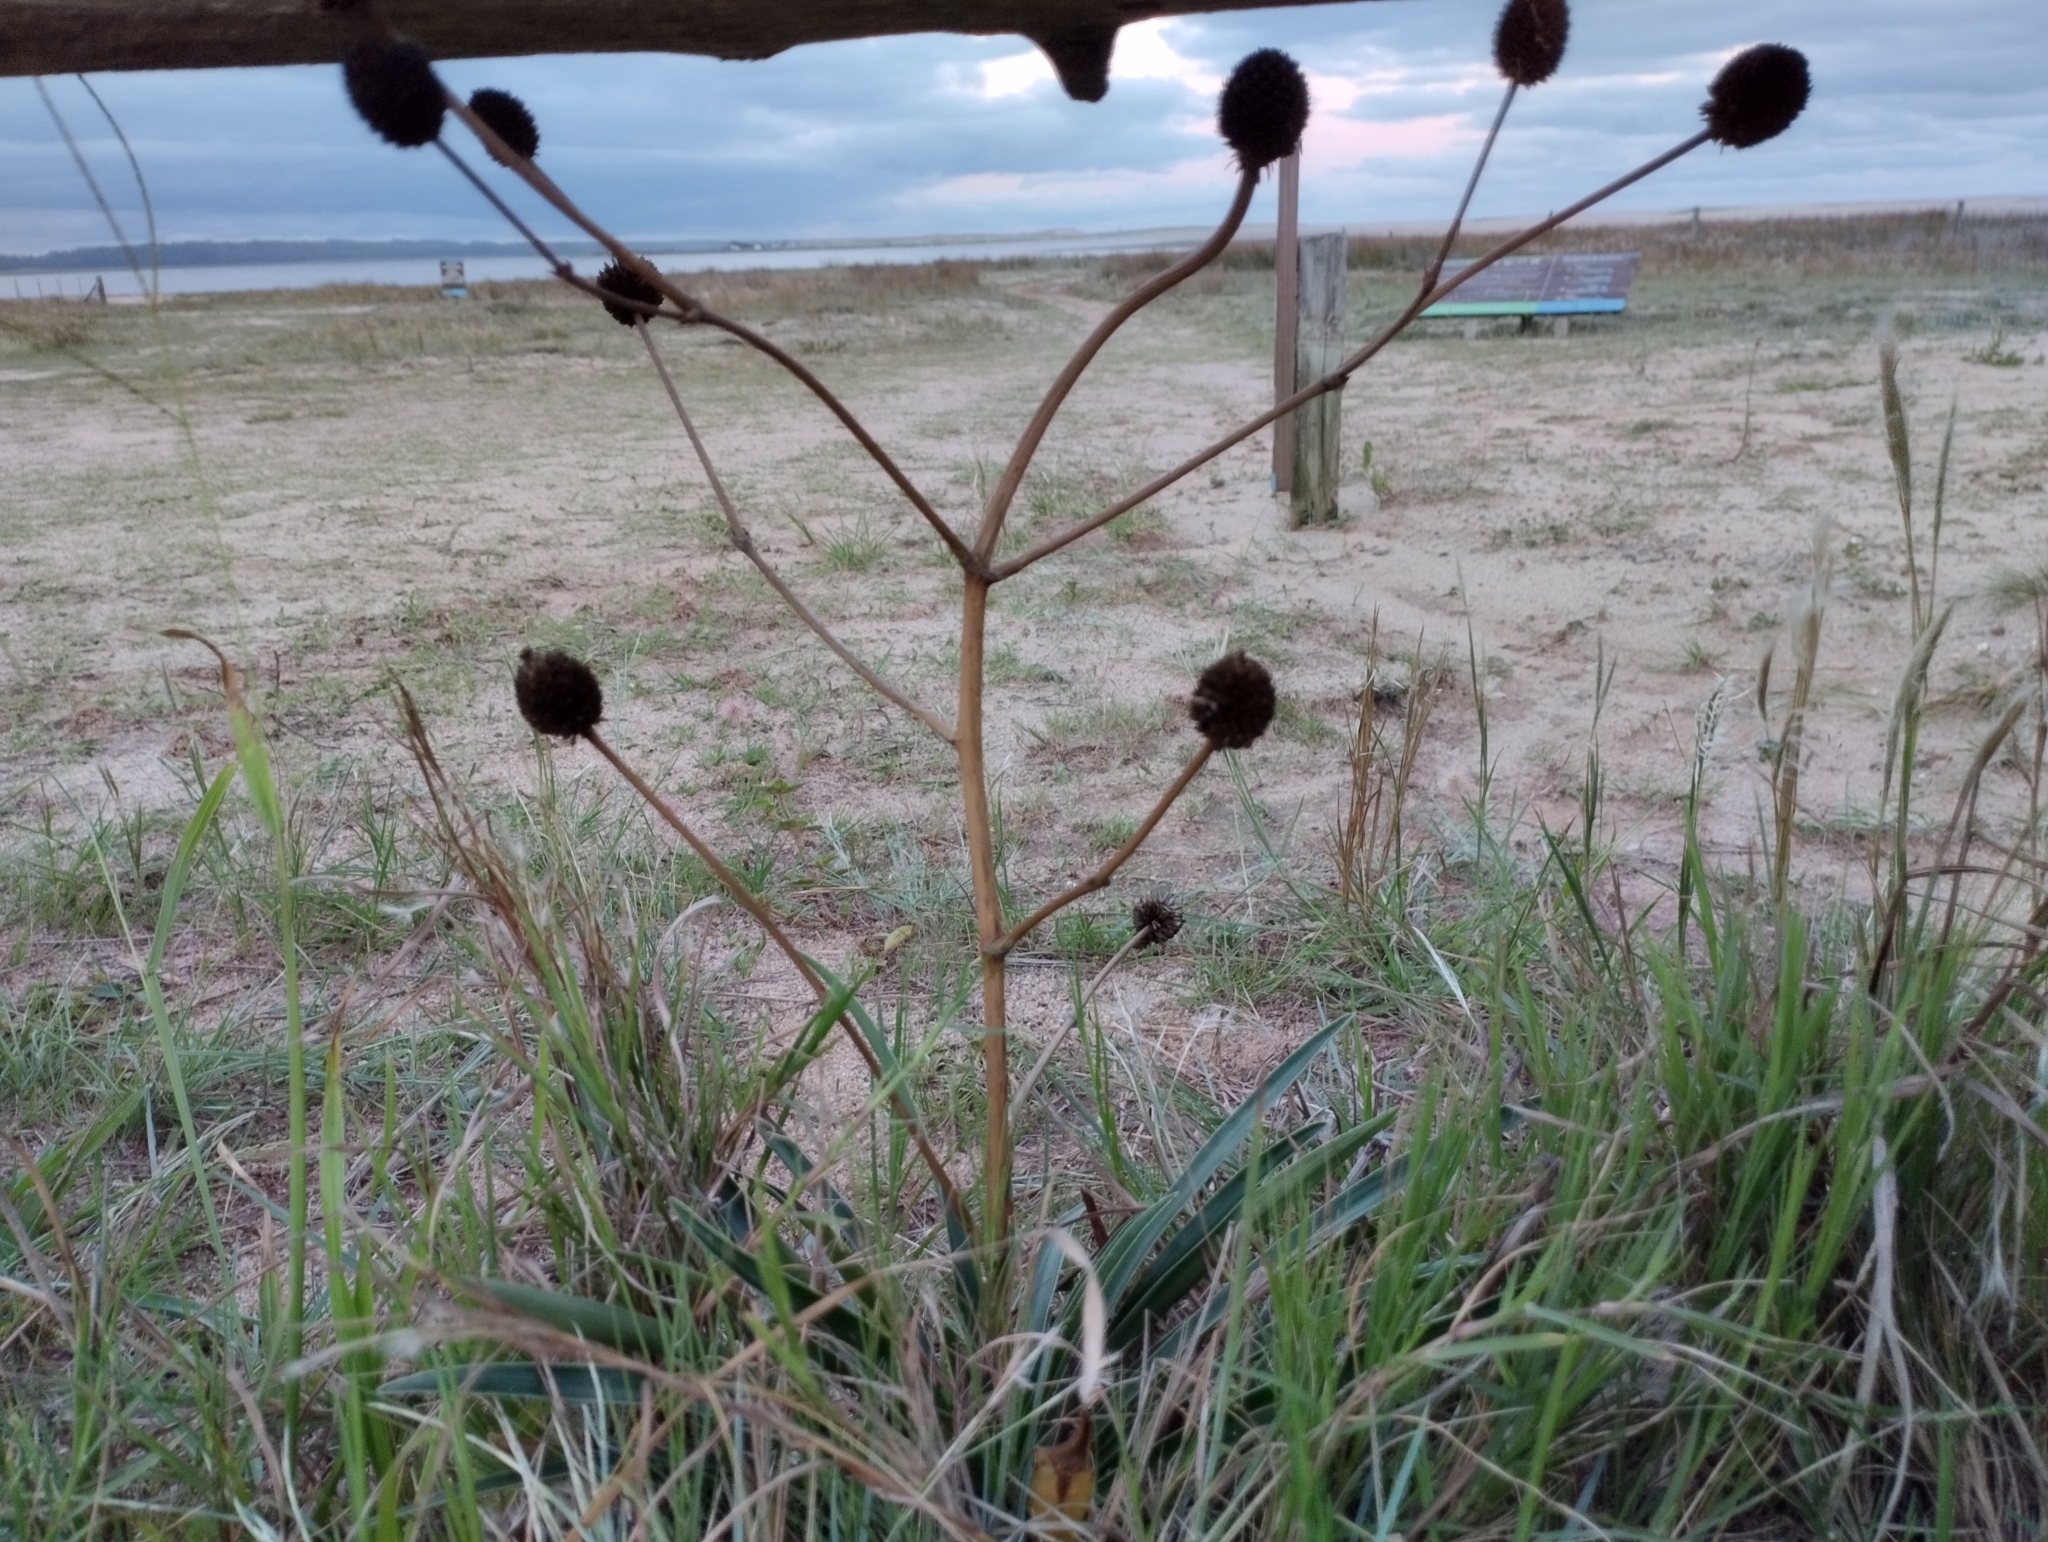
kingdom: Plantae
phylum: Tracheophyta
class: Magnoliopsida
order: Apiales
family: Apiaceae
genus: Eryngium
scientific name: Eryngium sanguisorba
